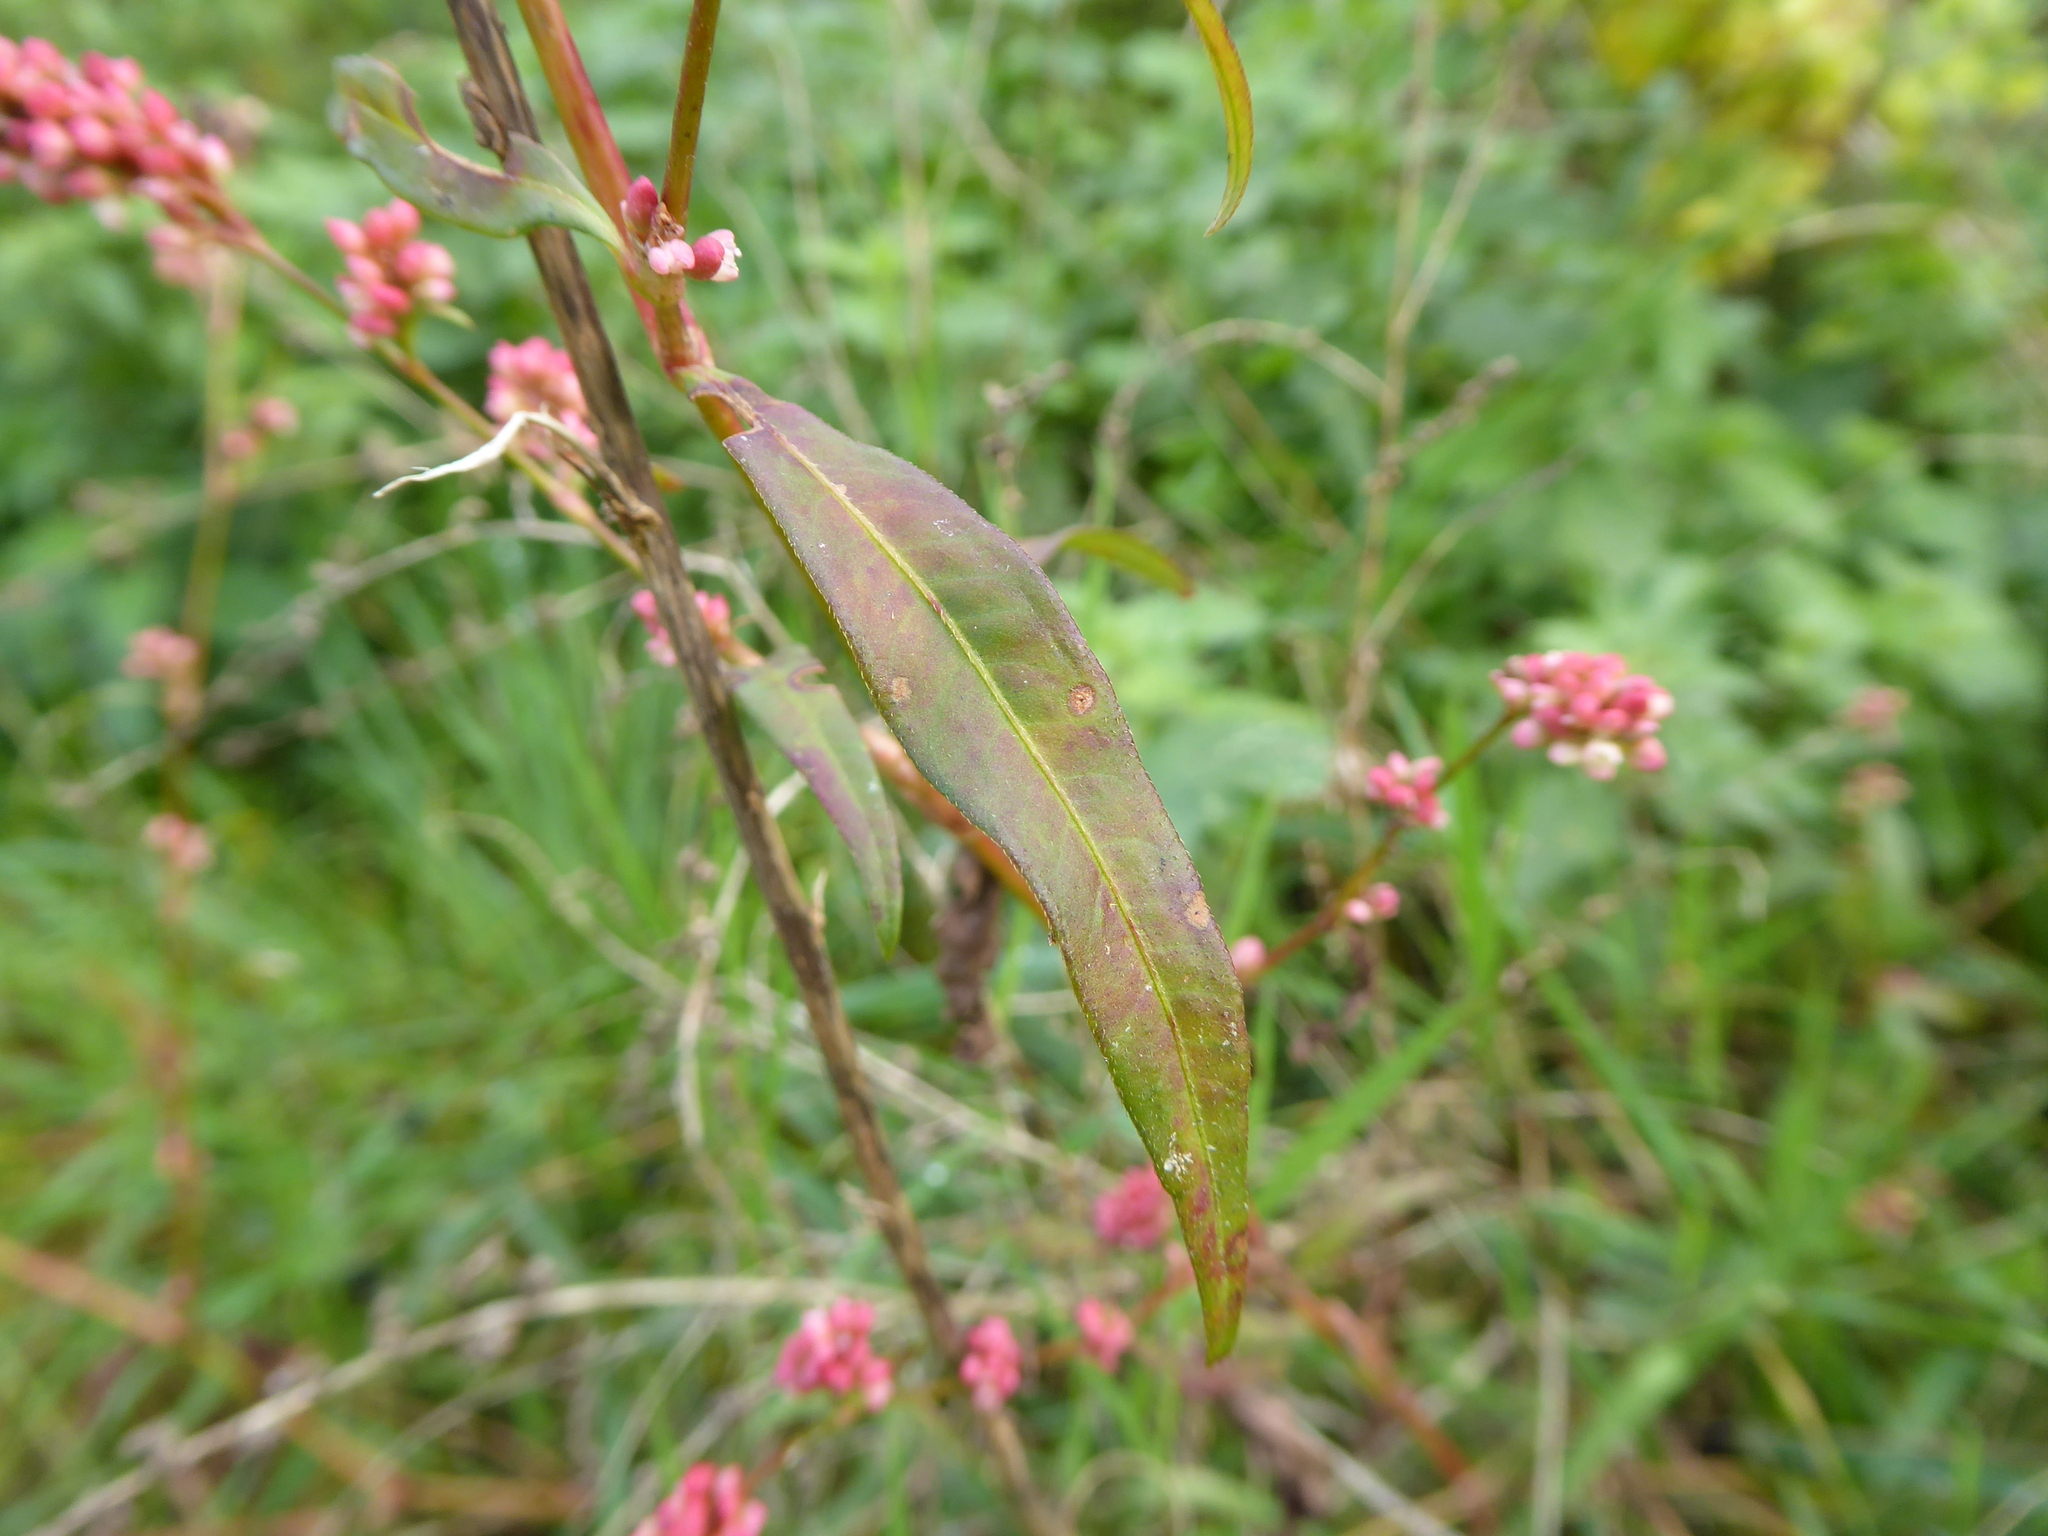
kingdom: Plantae
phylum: Tracheophyta
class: Magnoliopsida
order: Caryophyllales
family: Polygonaceae
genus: Persicaria
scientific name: Persicaria maculosa
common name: Redshank
